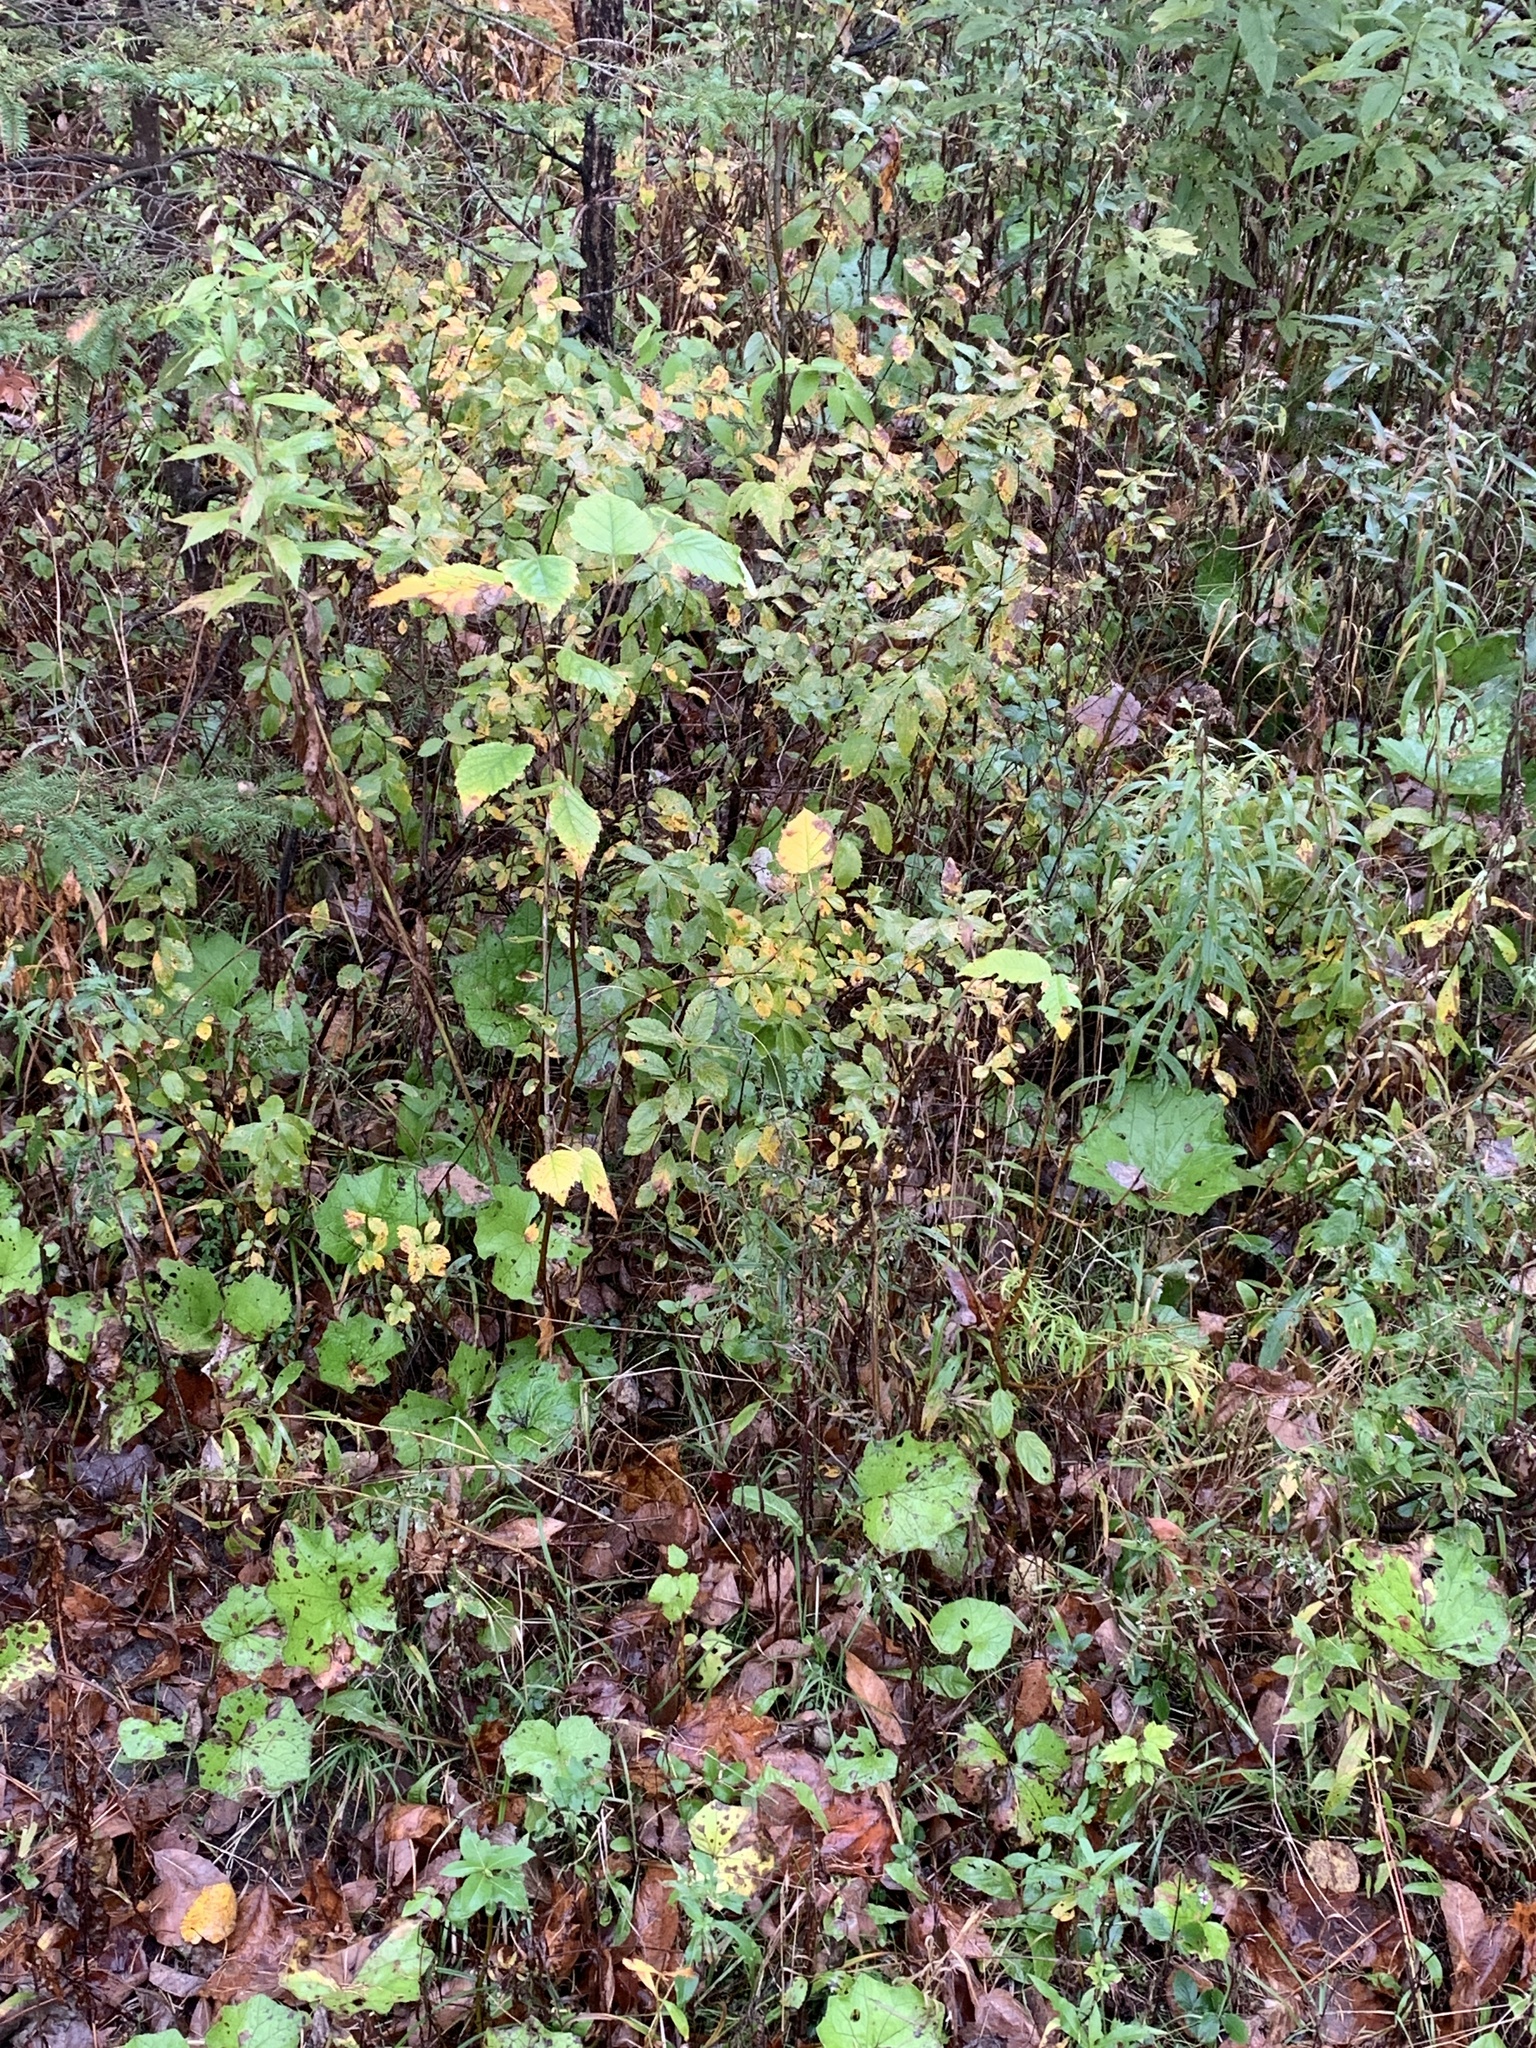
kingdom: Plantae
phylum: Tracheophyta
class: Magnoliopsida
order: Rosales
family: Rosaceae
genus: Spiraea
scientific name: Spiraea alba
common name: Pale bridewort
